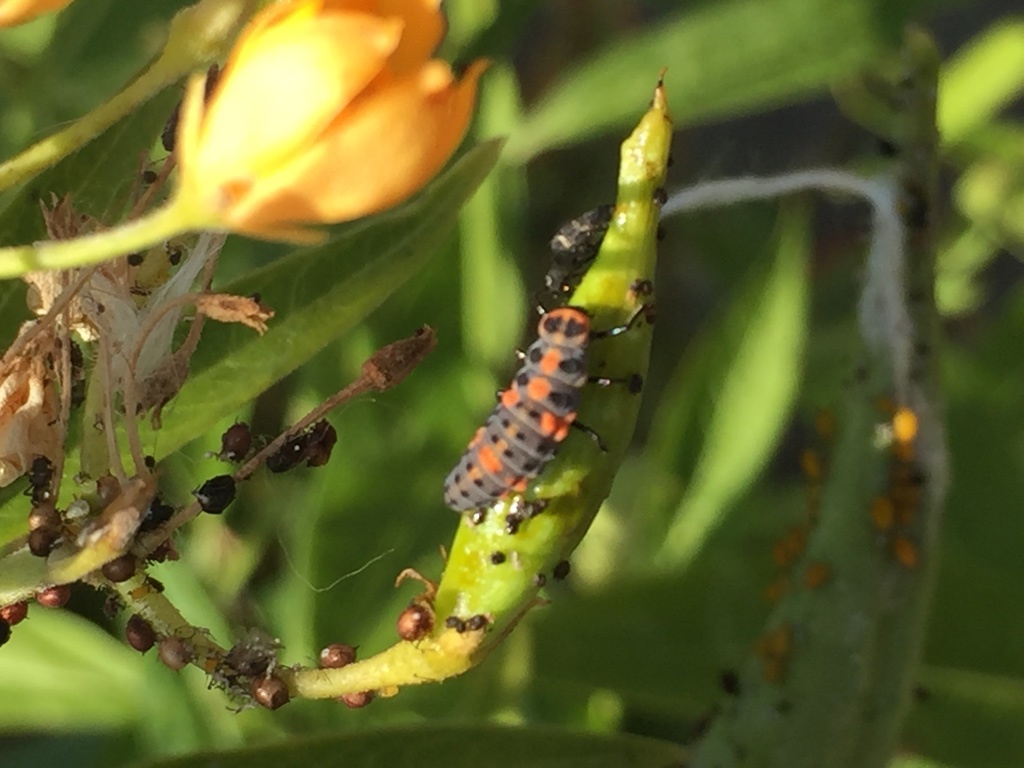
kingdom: Animalia
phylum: Arthropoda
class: Insecta
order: Coleoptera
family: Coccinellidae
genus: Hippodamia
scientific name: Hippodamia convergens
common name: Convergent lady beetle
